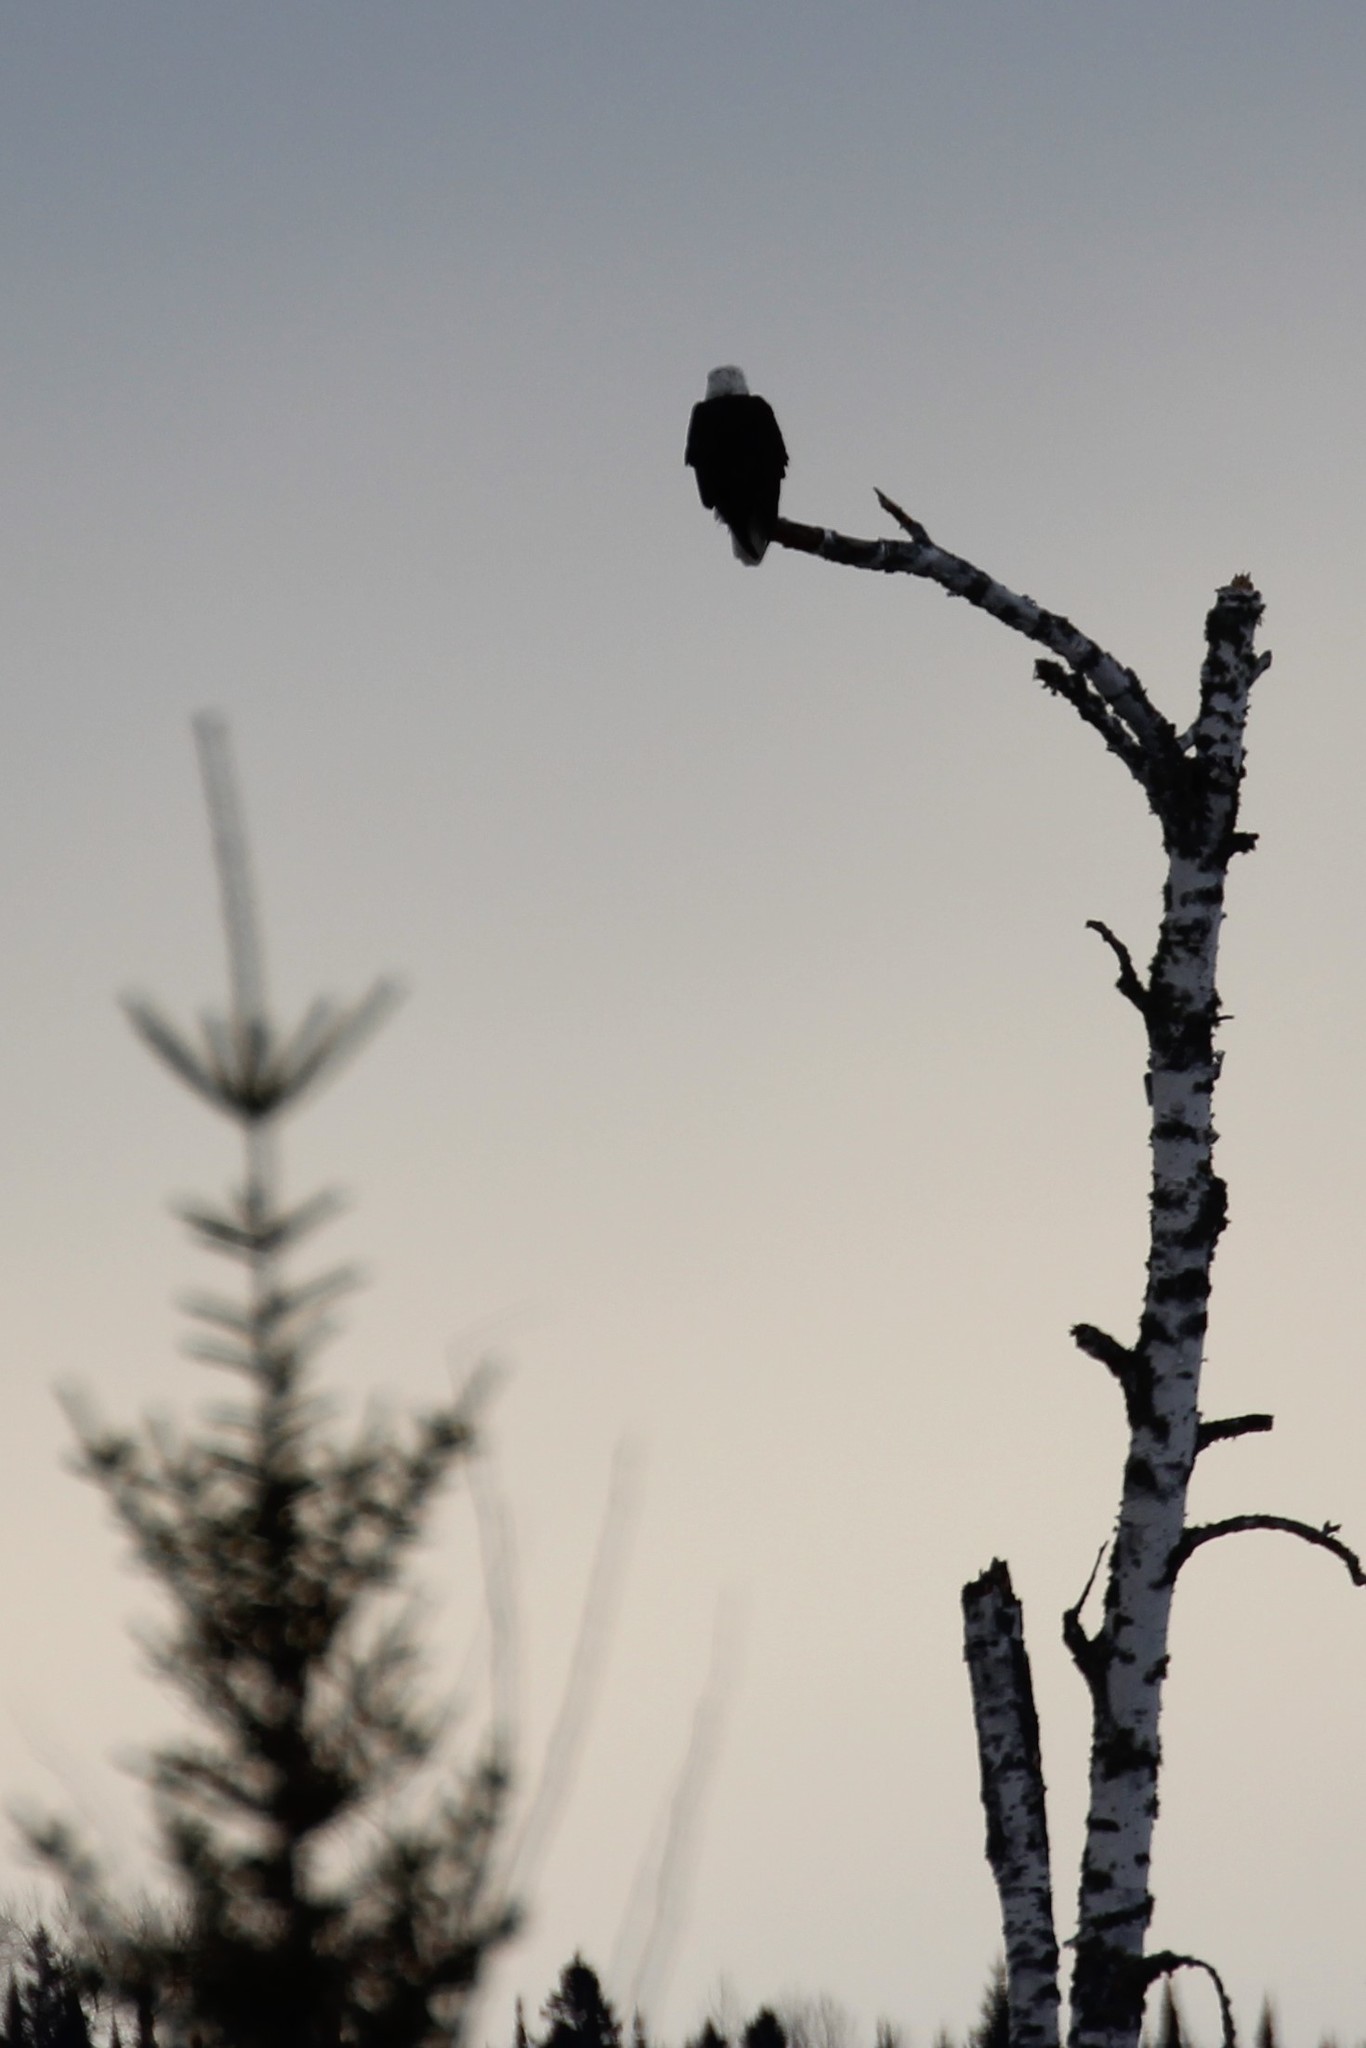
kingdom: Animalia
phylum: Chordata
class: Aves
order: Accipitriformes
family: Accipitridae
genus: Haliaeetus
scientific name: Haliaeetus leucocephalus
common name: Bald eagle
